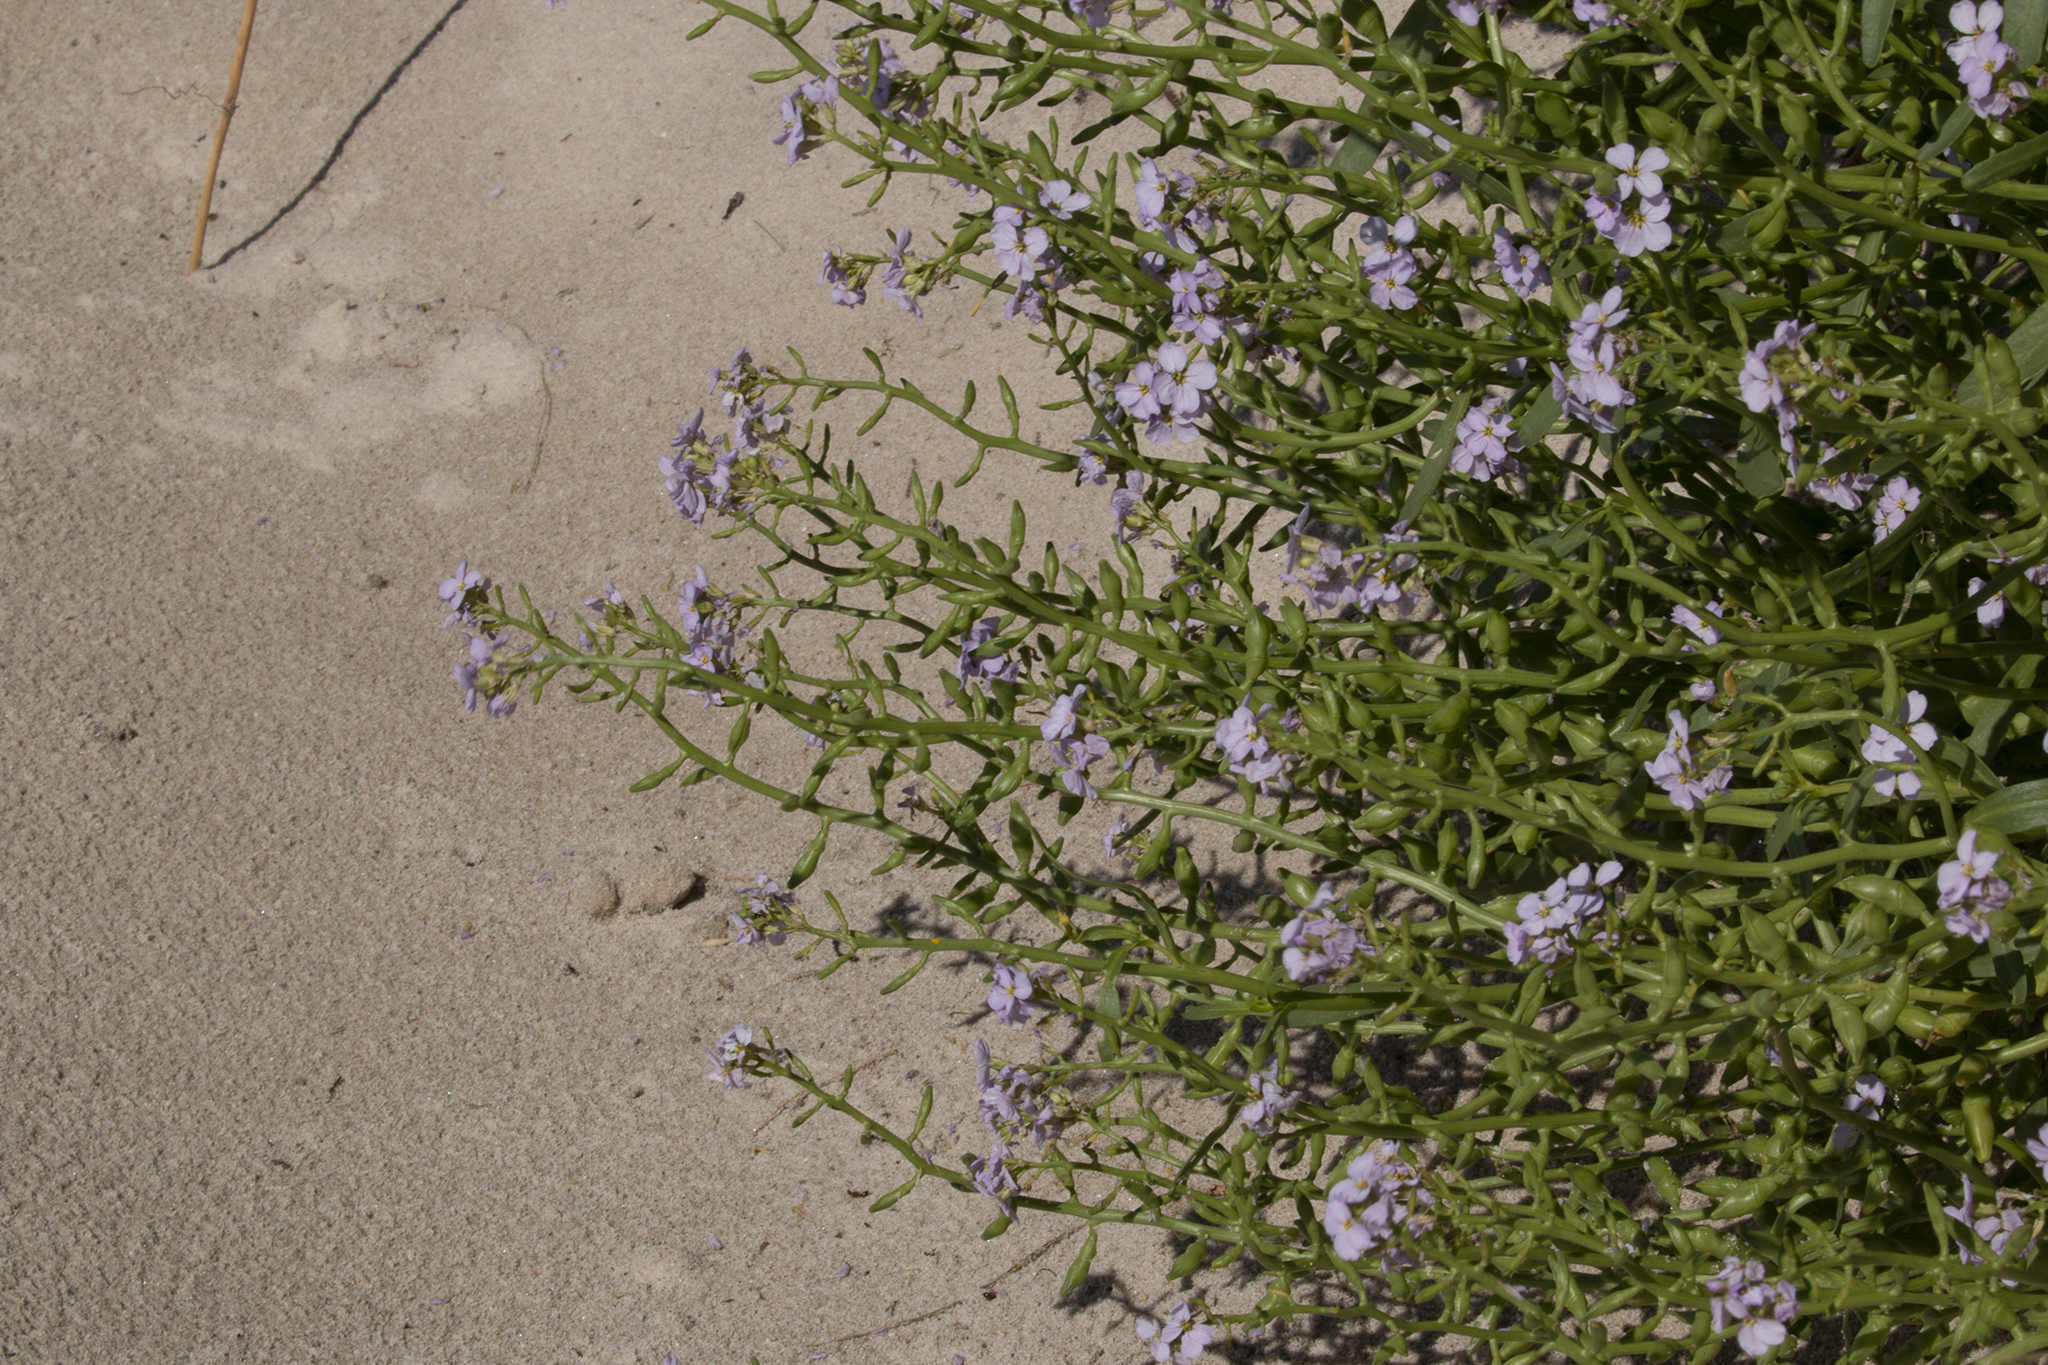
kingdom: Plantae
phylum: Tracheophyta
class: Magnoliopsida
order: Brassicales
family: Brassicaceae
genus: Cakile
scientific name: Cakile maritima
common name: Sea rocket
